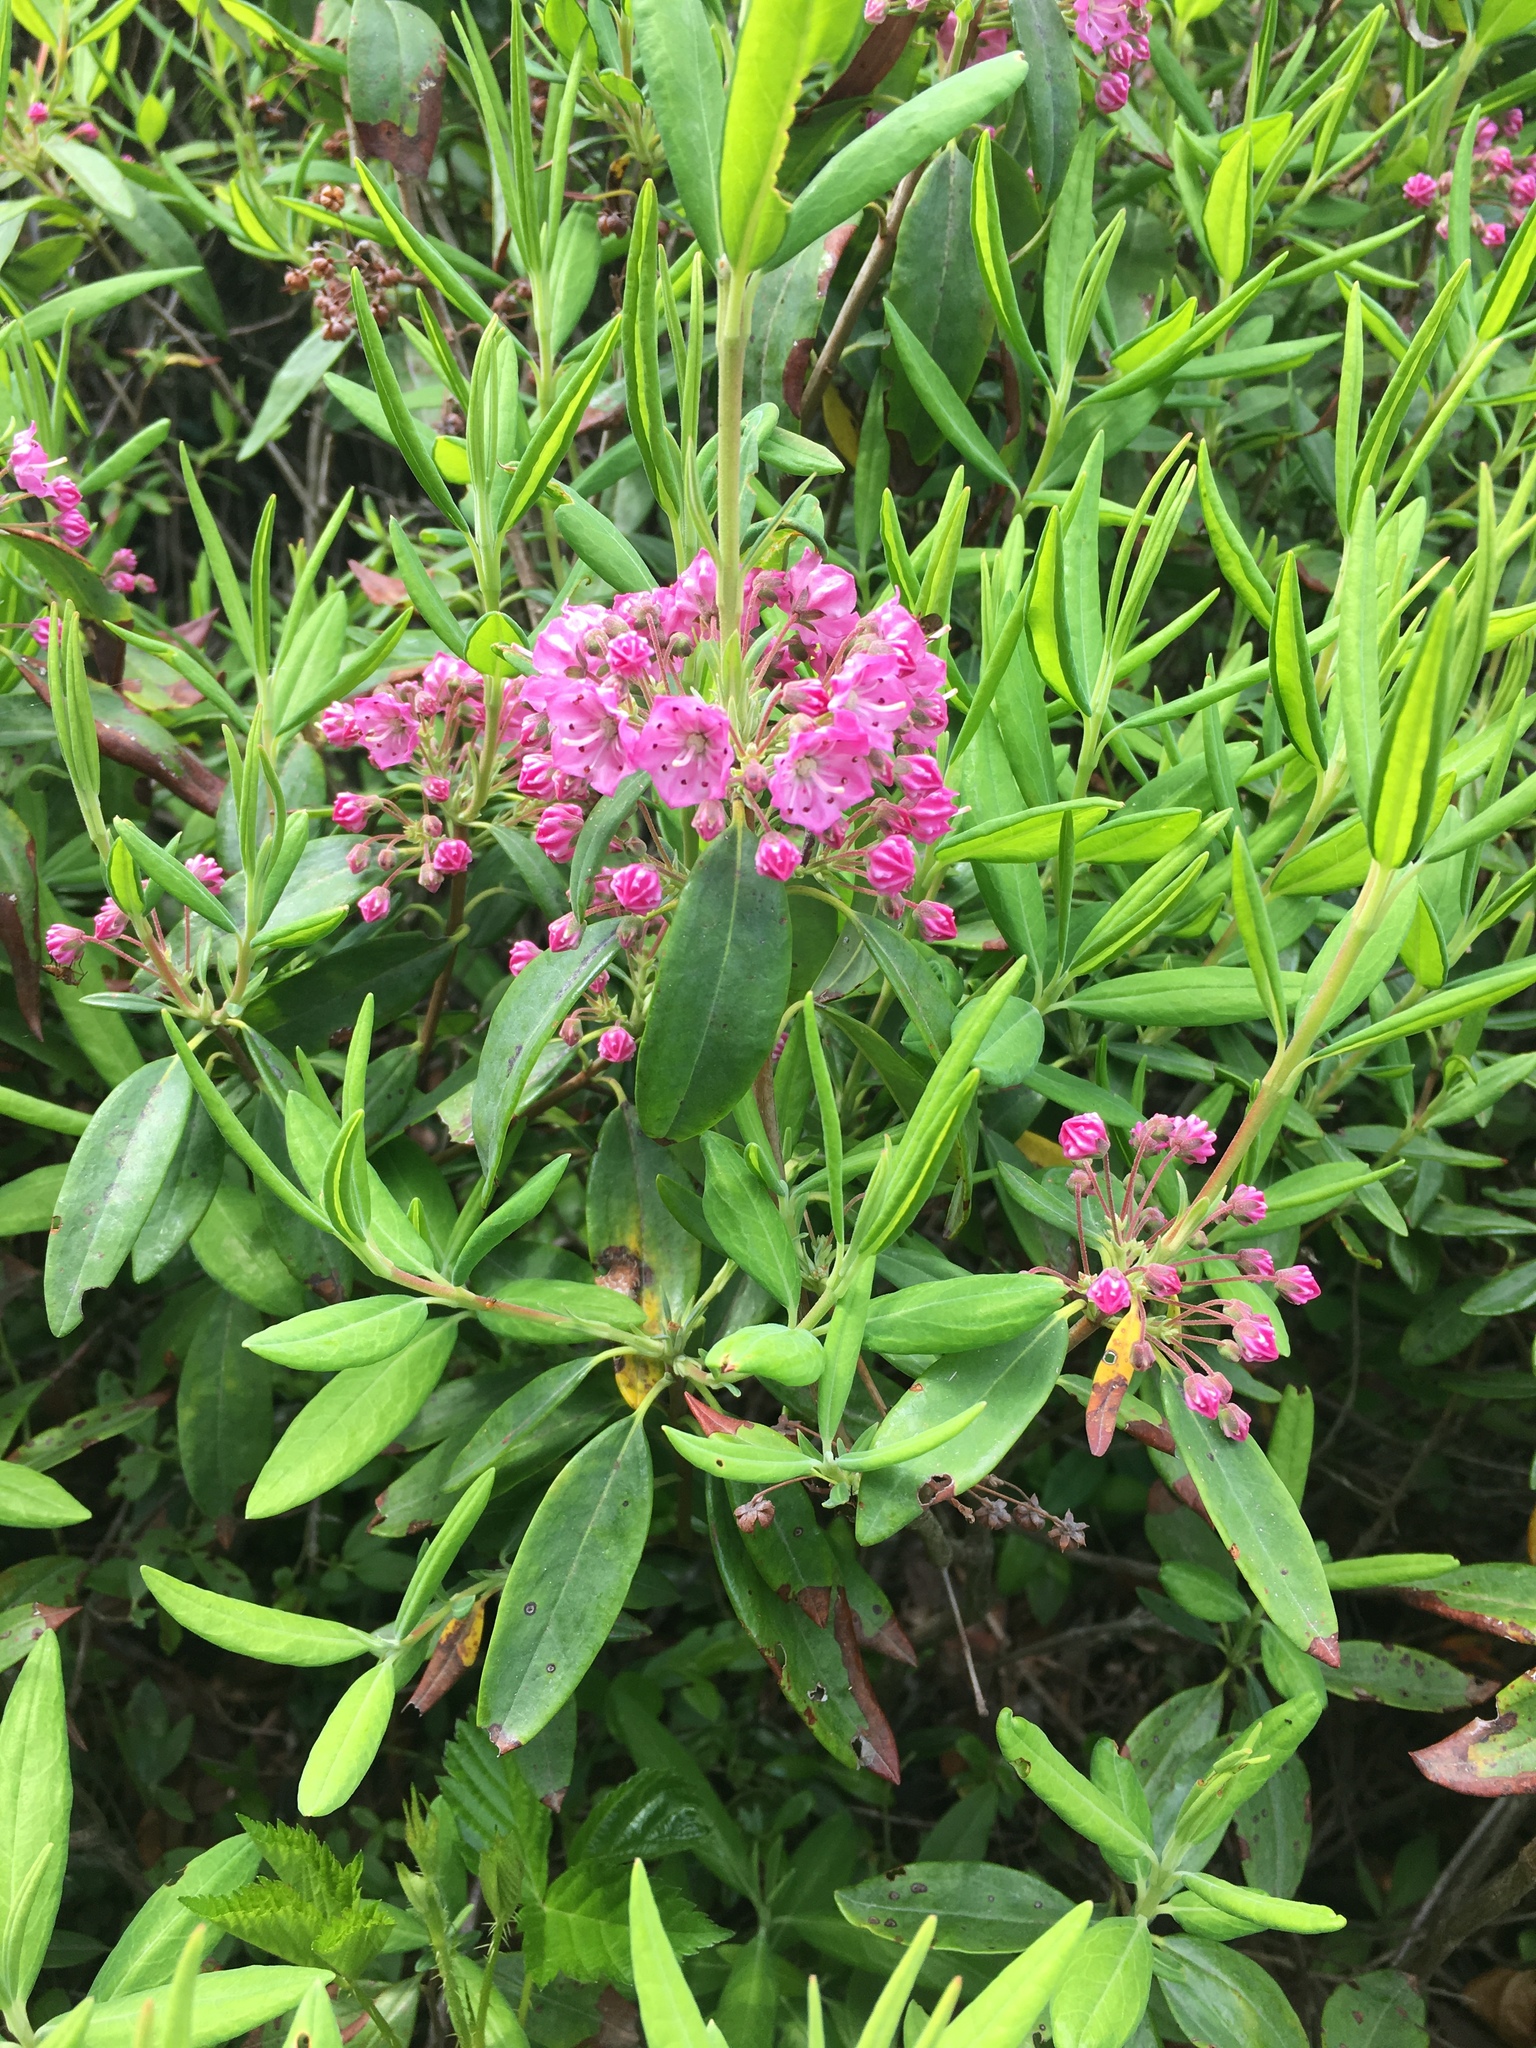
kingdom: Plantae
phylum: Tracheophyta
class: Magnoliopsida
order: Ericales
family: Ericaceae
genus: Kalmia
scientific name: Kalmia angustifolia
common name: Sheep-laurel
